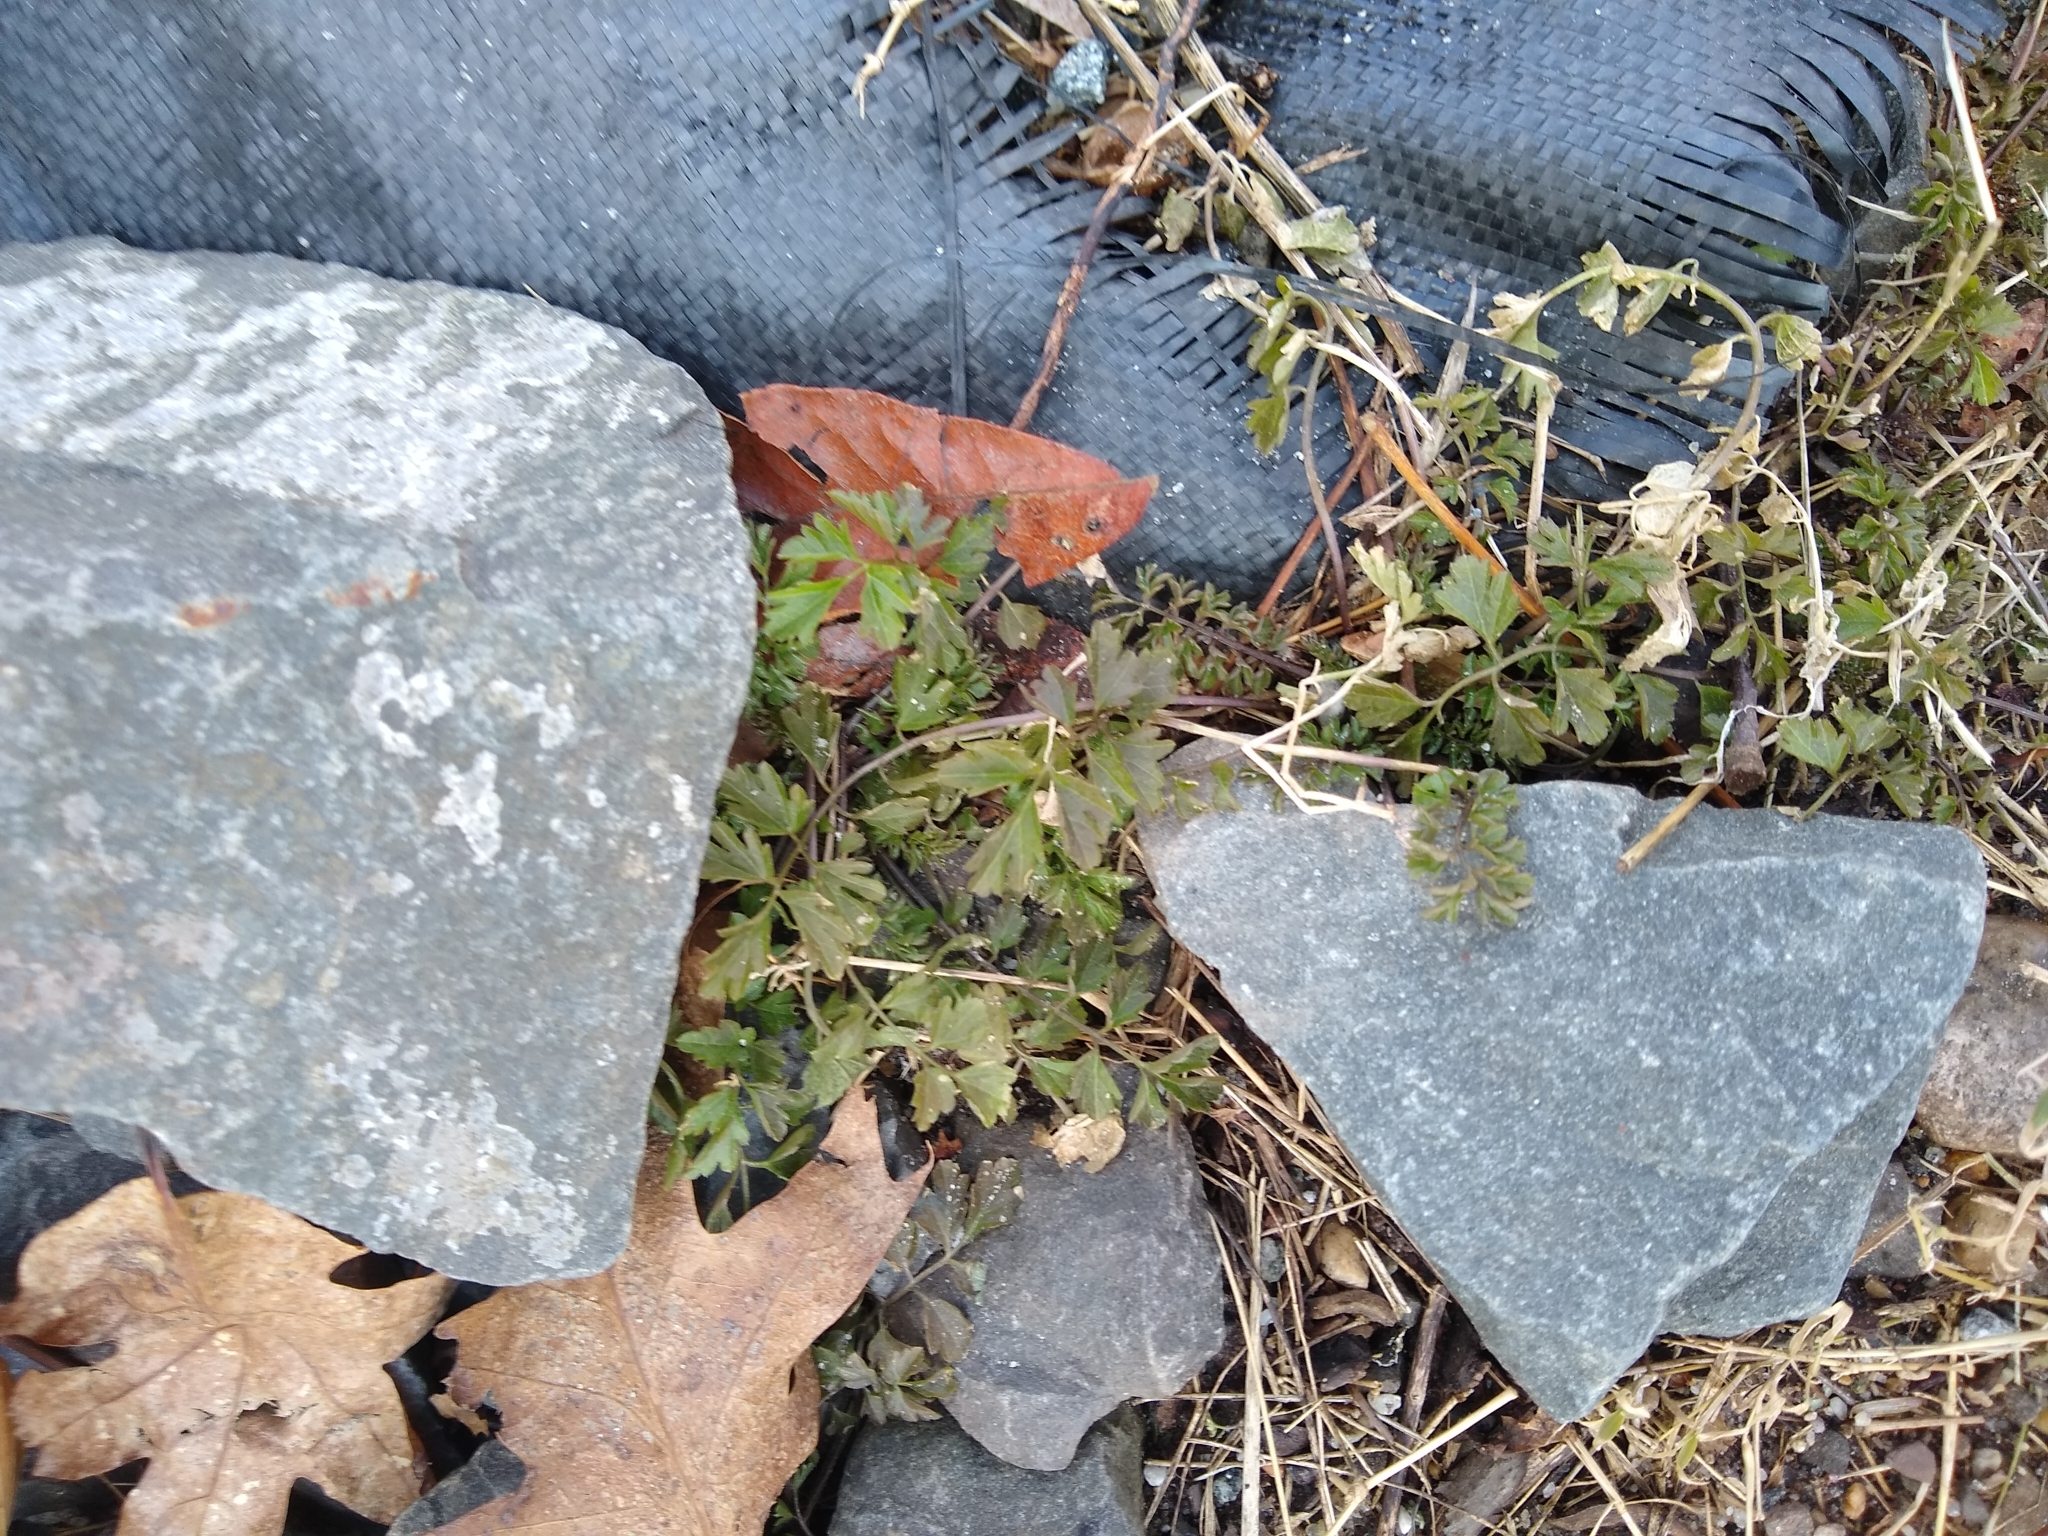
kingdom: Plantae
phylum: Tracheophyta
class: Magnoliopsida
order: Brassicales
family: Brassicaceae
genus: Cardamine
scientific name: Cardamine impatiens
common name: Narrow-leaved bitter-cress
